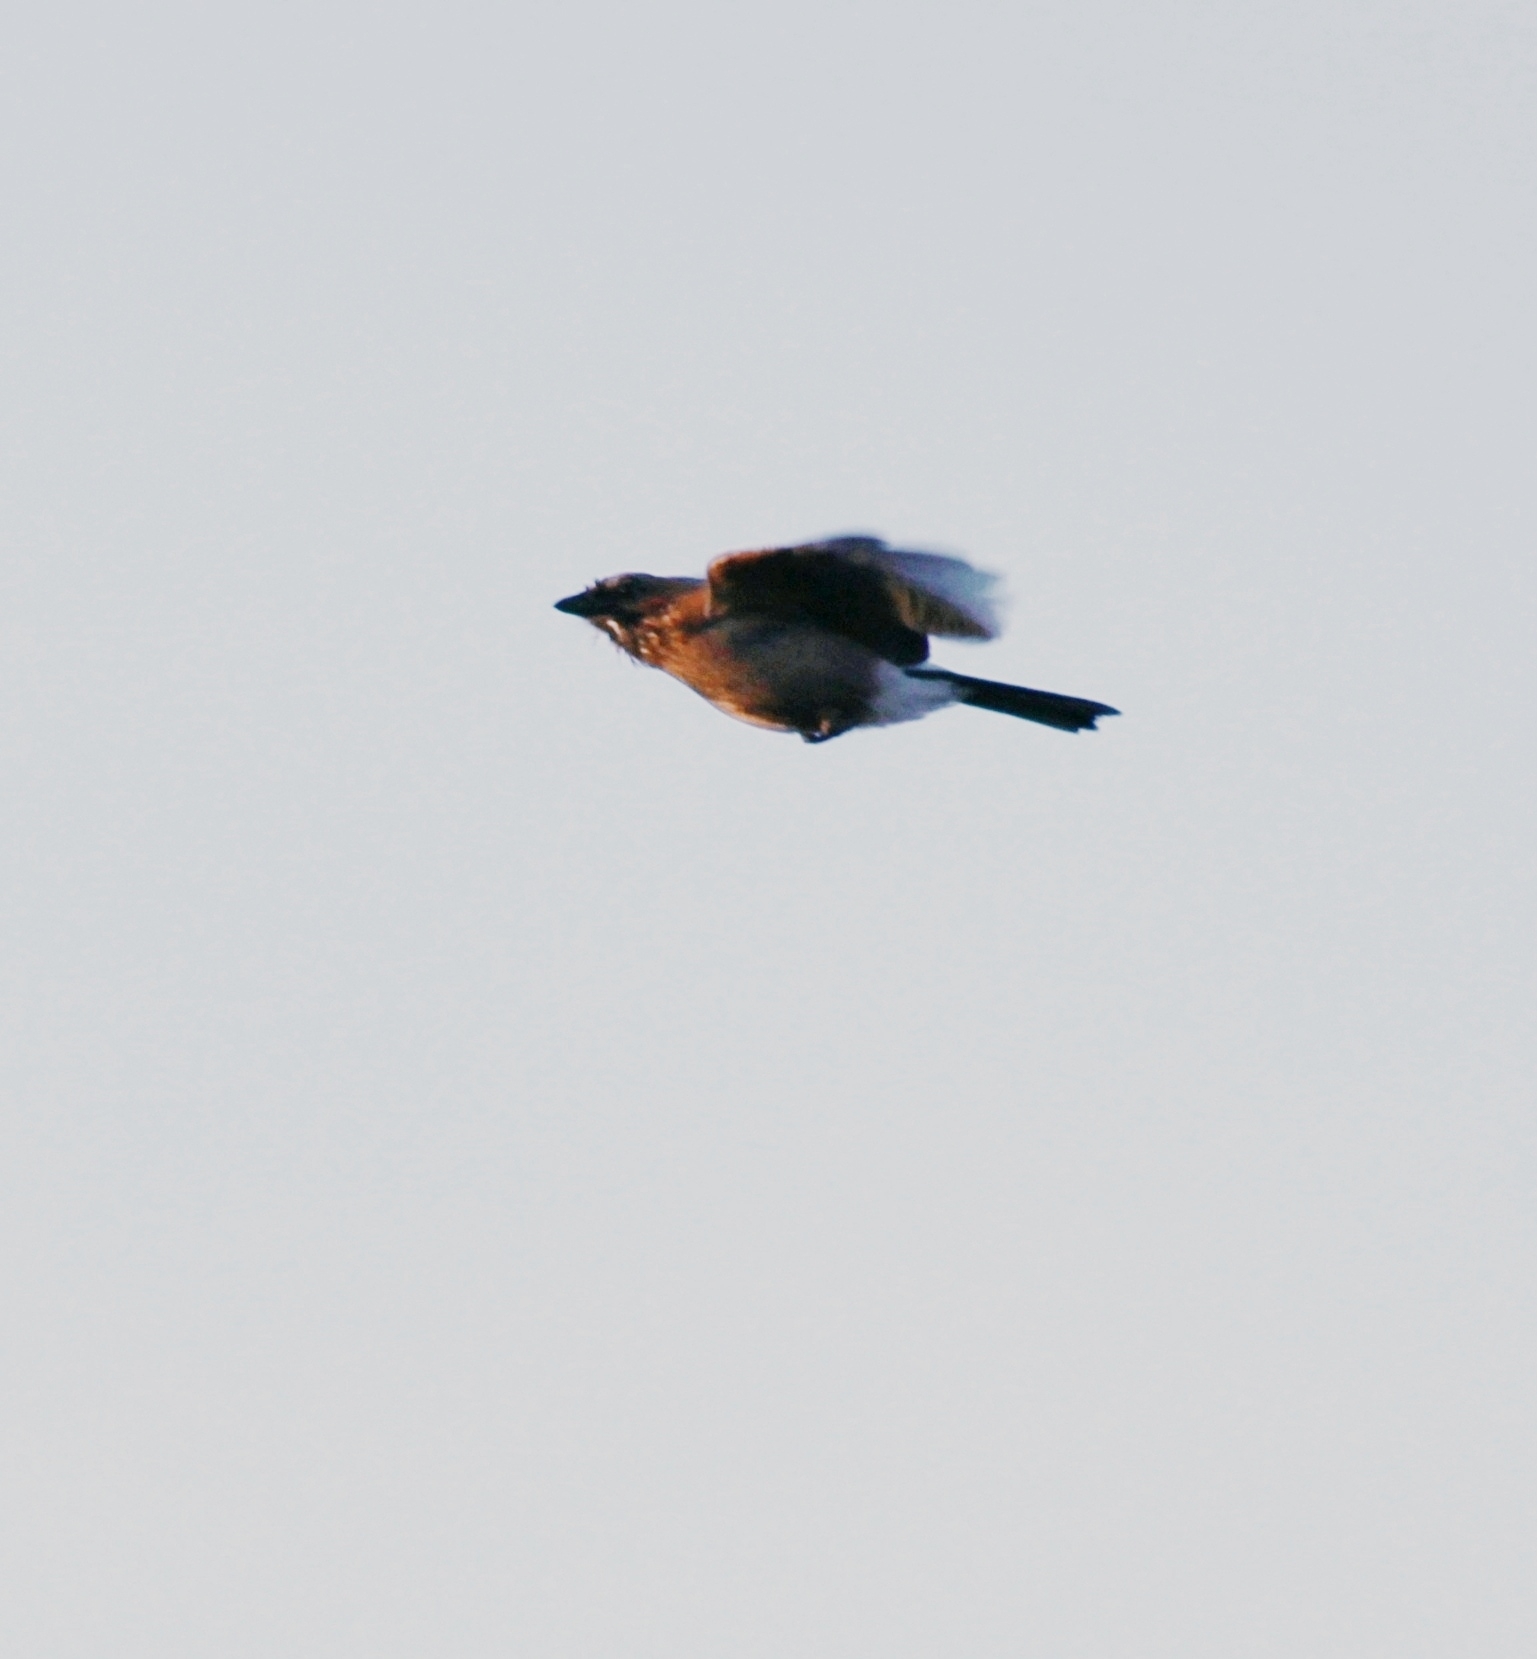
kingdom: Animalia
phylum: Chordata
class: Aves
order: Passeriformes
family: Corvidae
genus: Garrulus
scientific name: Garrulus glandarius
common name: Eurasian jay
